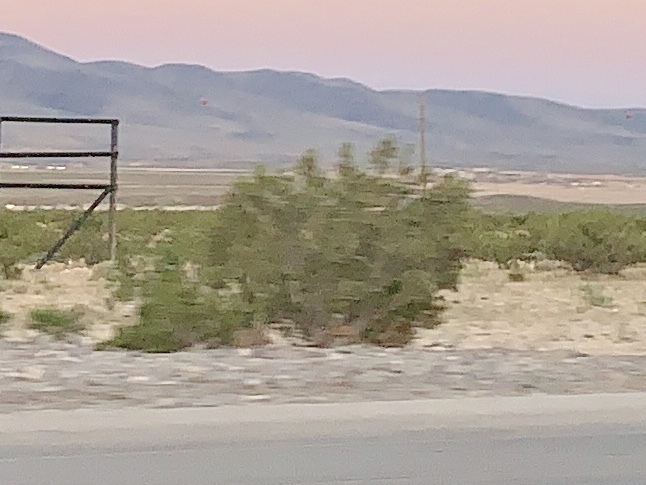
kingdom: Plantae
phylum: Tracheophyta
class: Magnoliopsida
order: Zygophyllales
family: Zygophyllaceae
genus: Larrea
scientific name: Larrea tridentata
